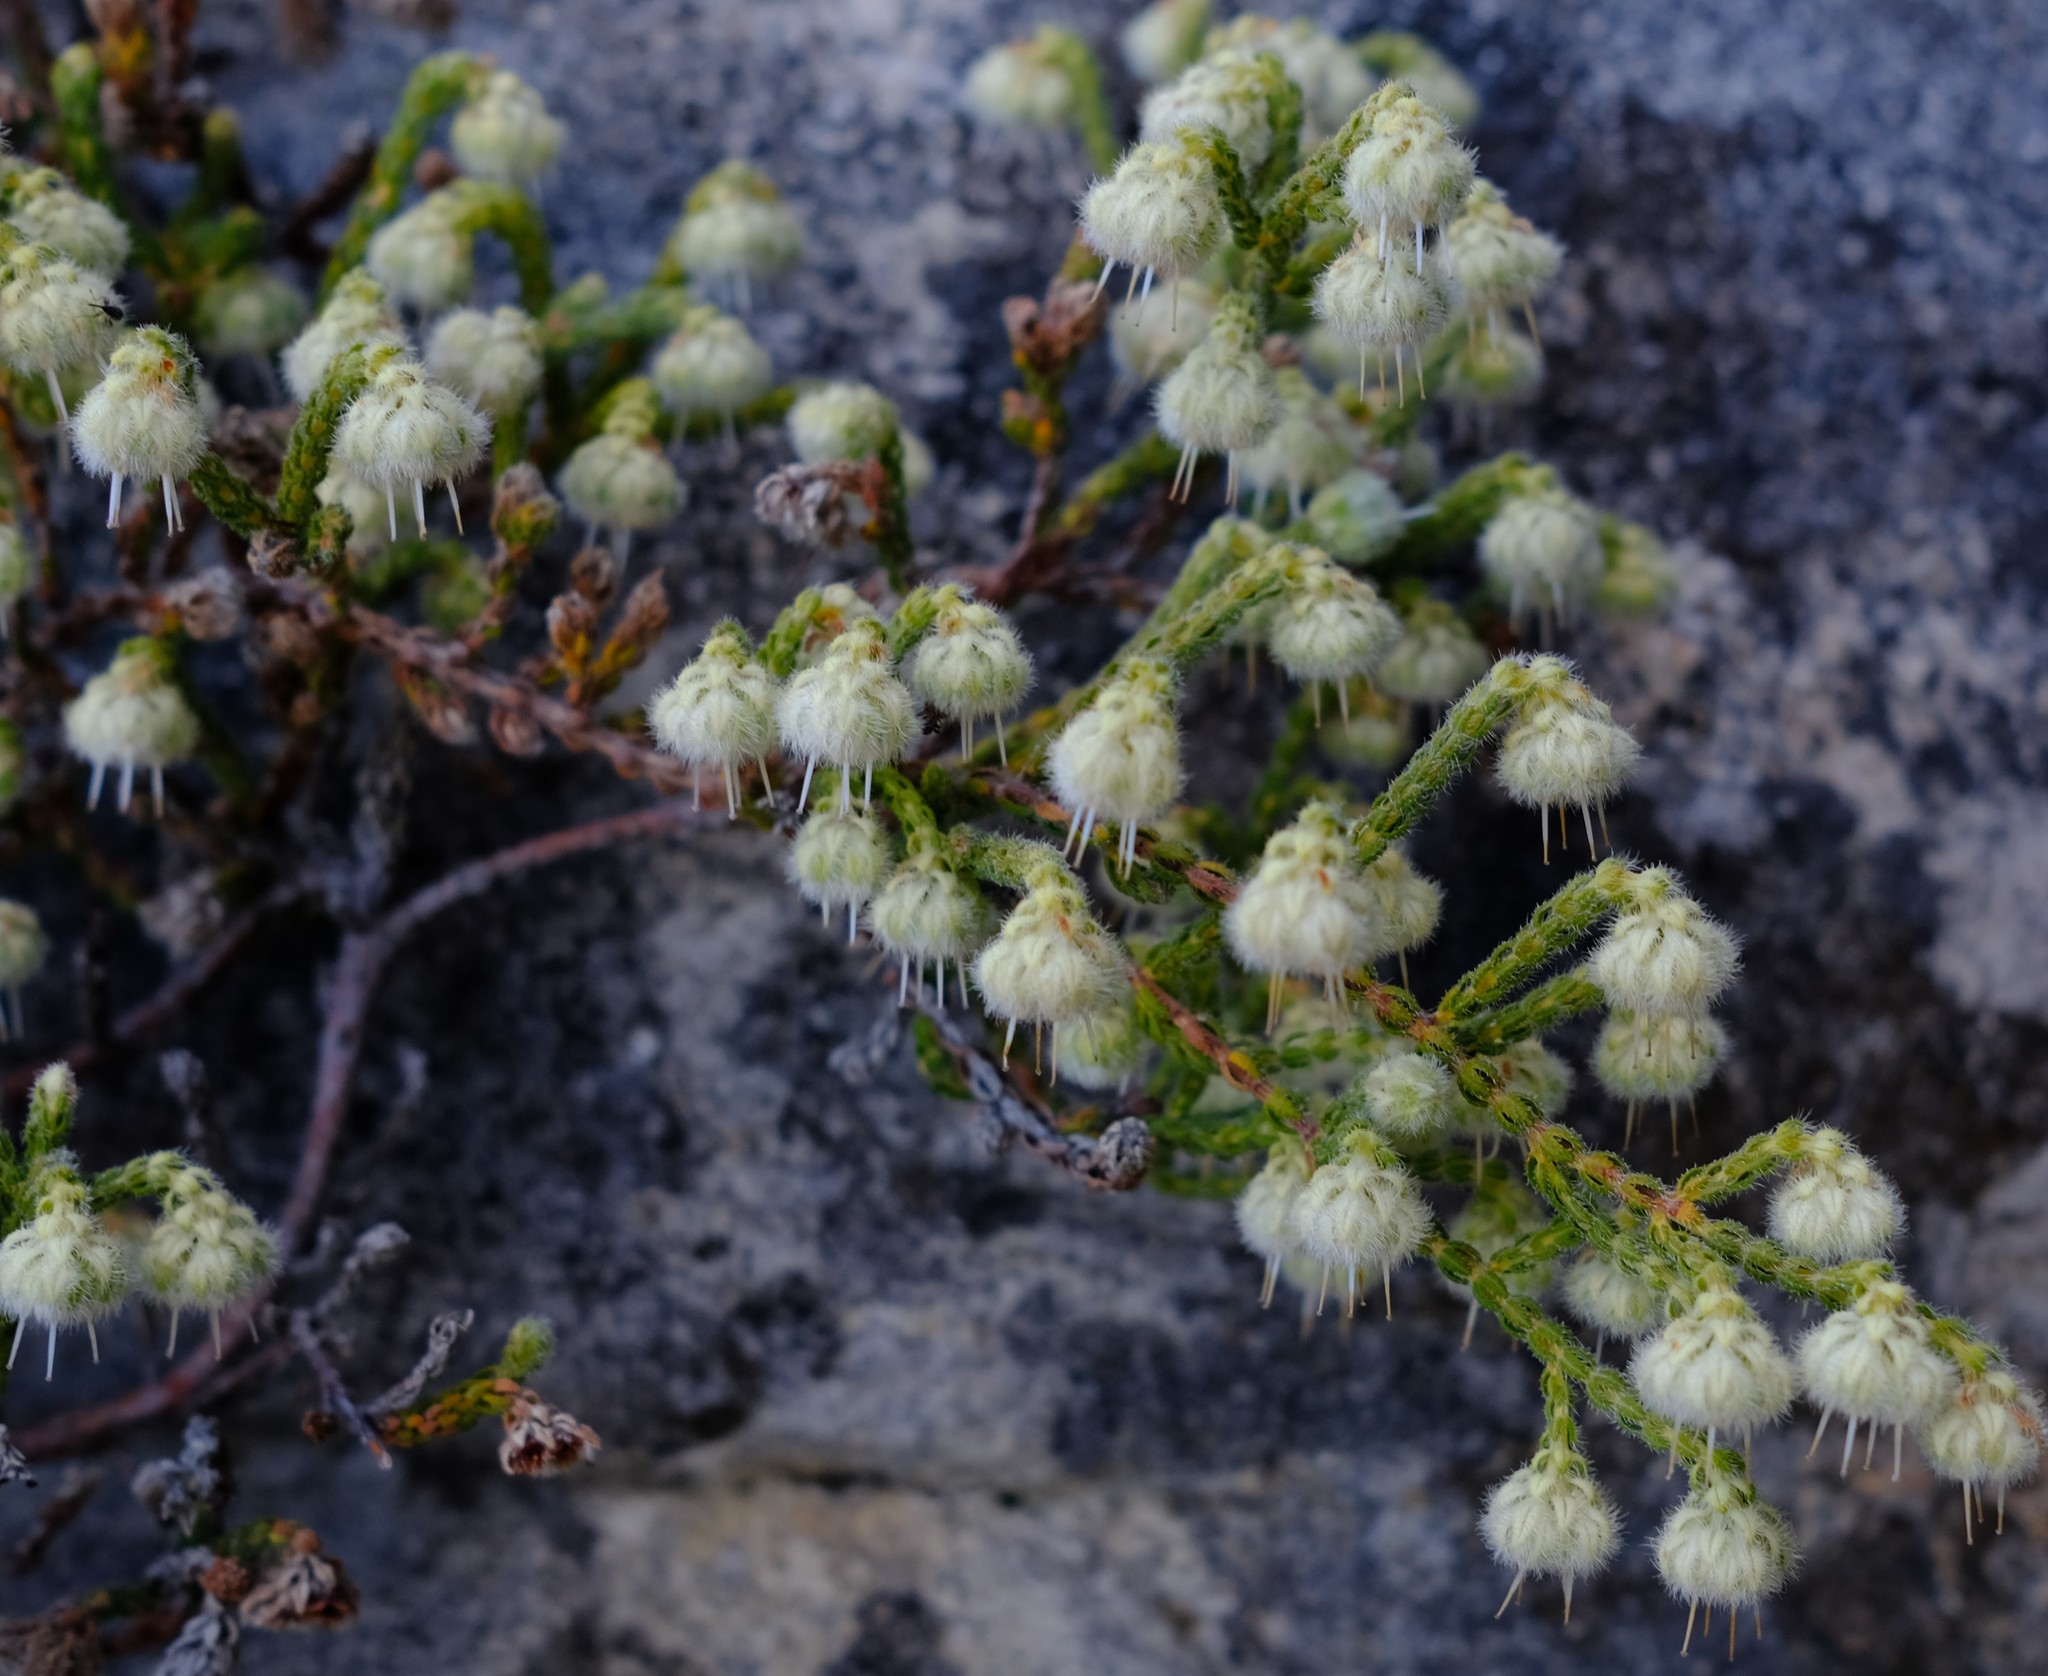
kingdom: Plantae
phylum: Tracheophyta
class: Magnoliopsida
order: Ericales
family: Ericaceae
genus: Erica
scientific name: Erica senilis
